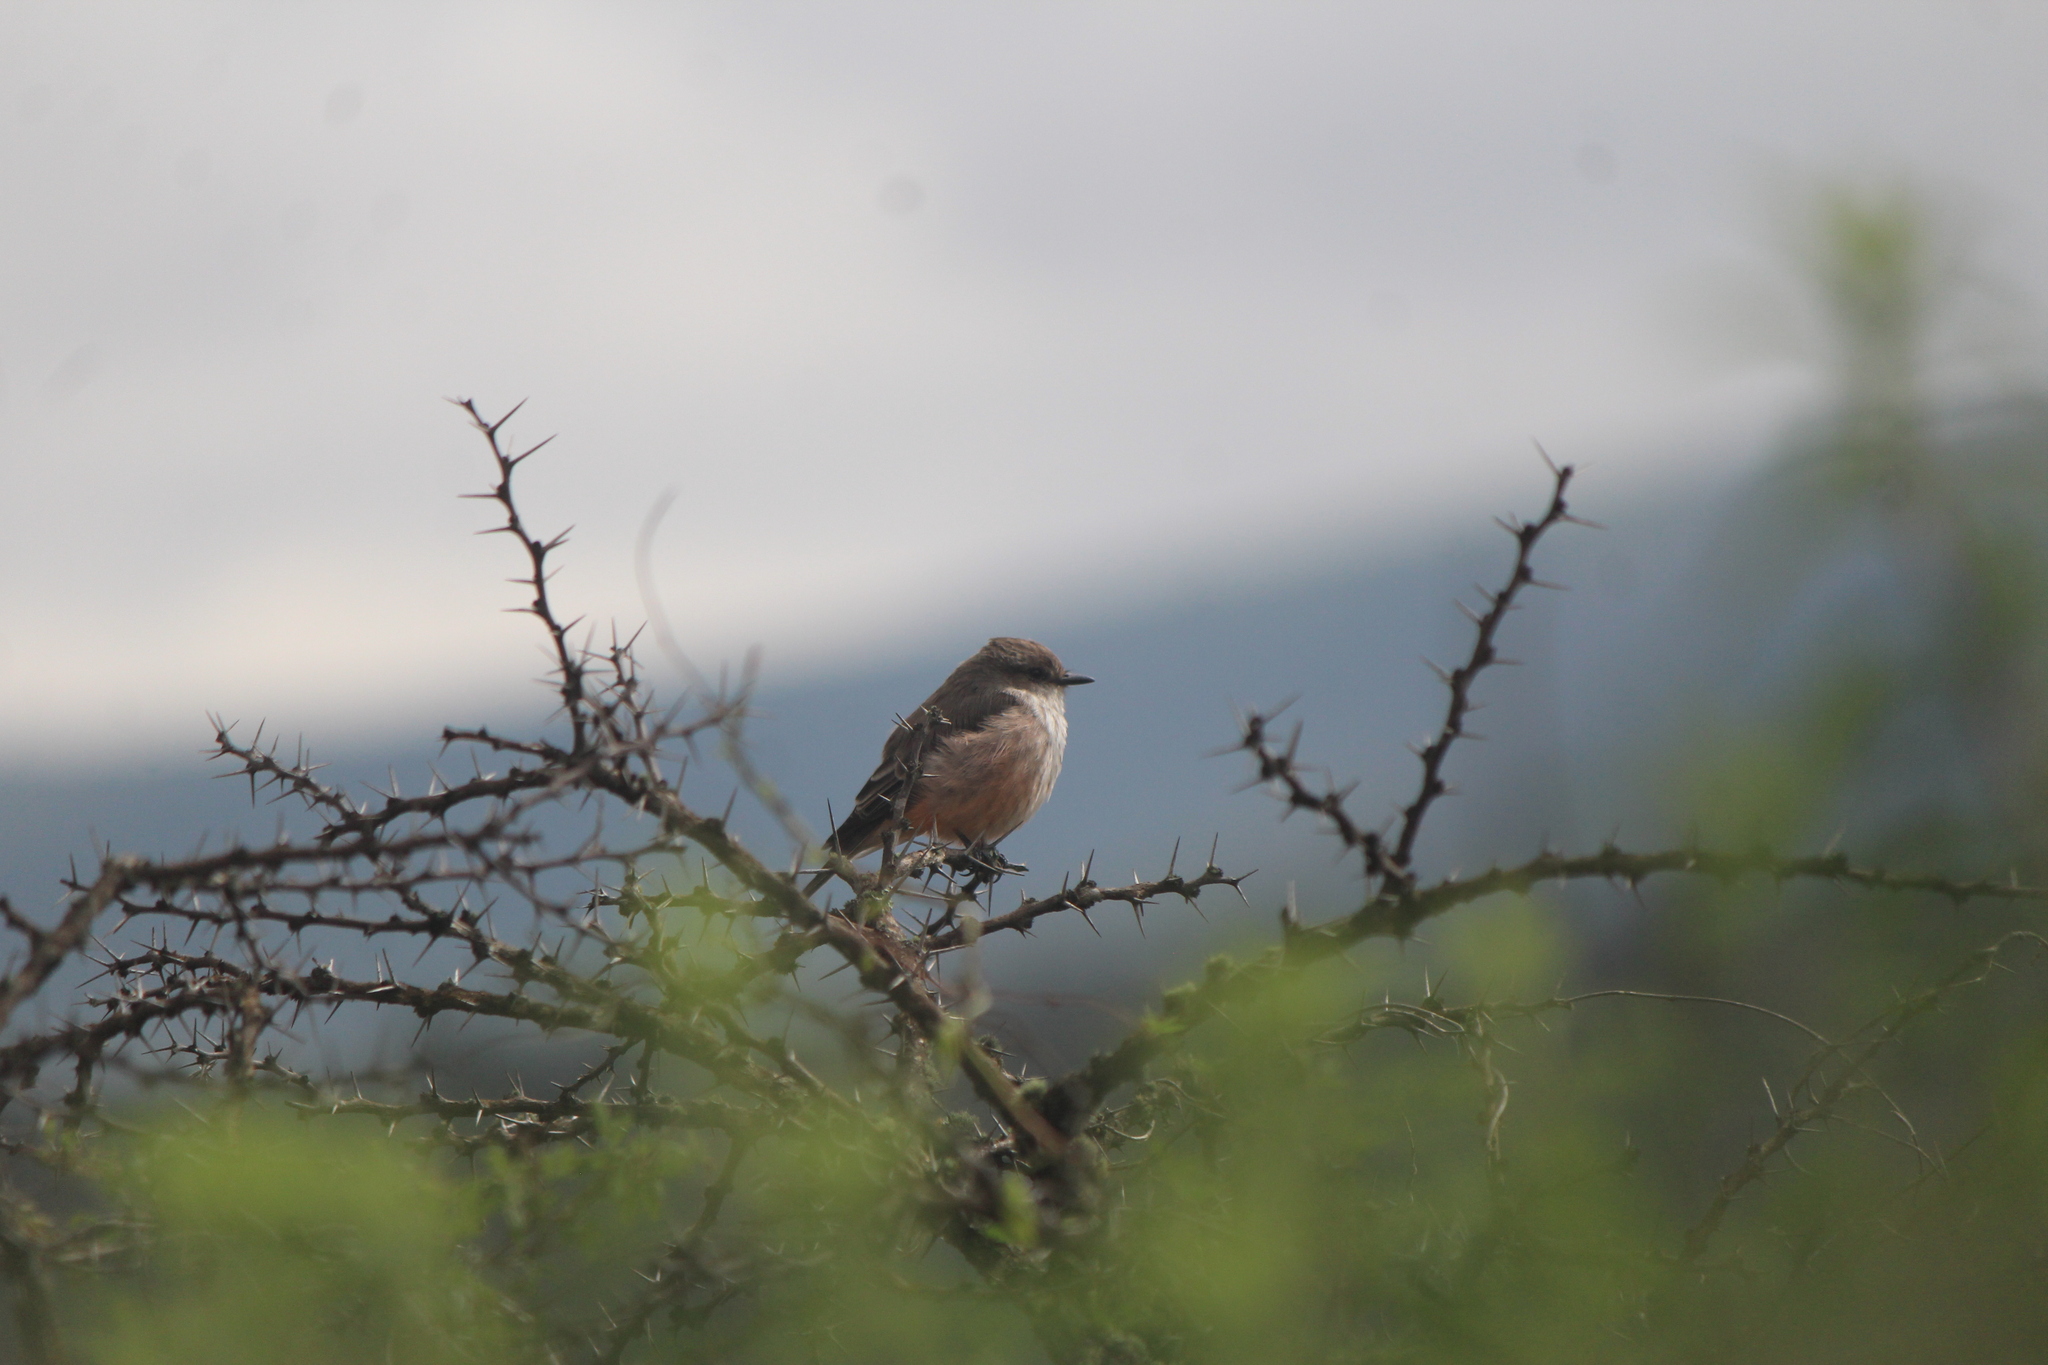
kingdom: Animalia
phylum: Chordata
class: Aves
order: Passeriformes
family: Tyrannidae
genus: Pyrocephalus
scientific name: Pyrocephalus rubinus
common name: Vermilion flycatcher
